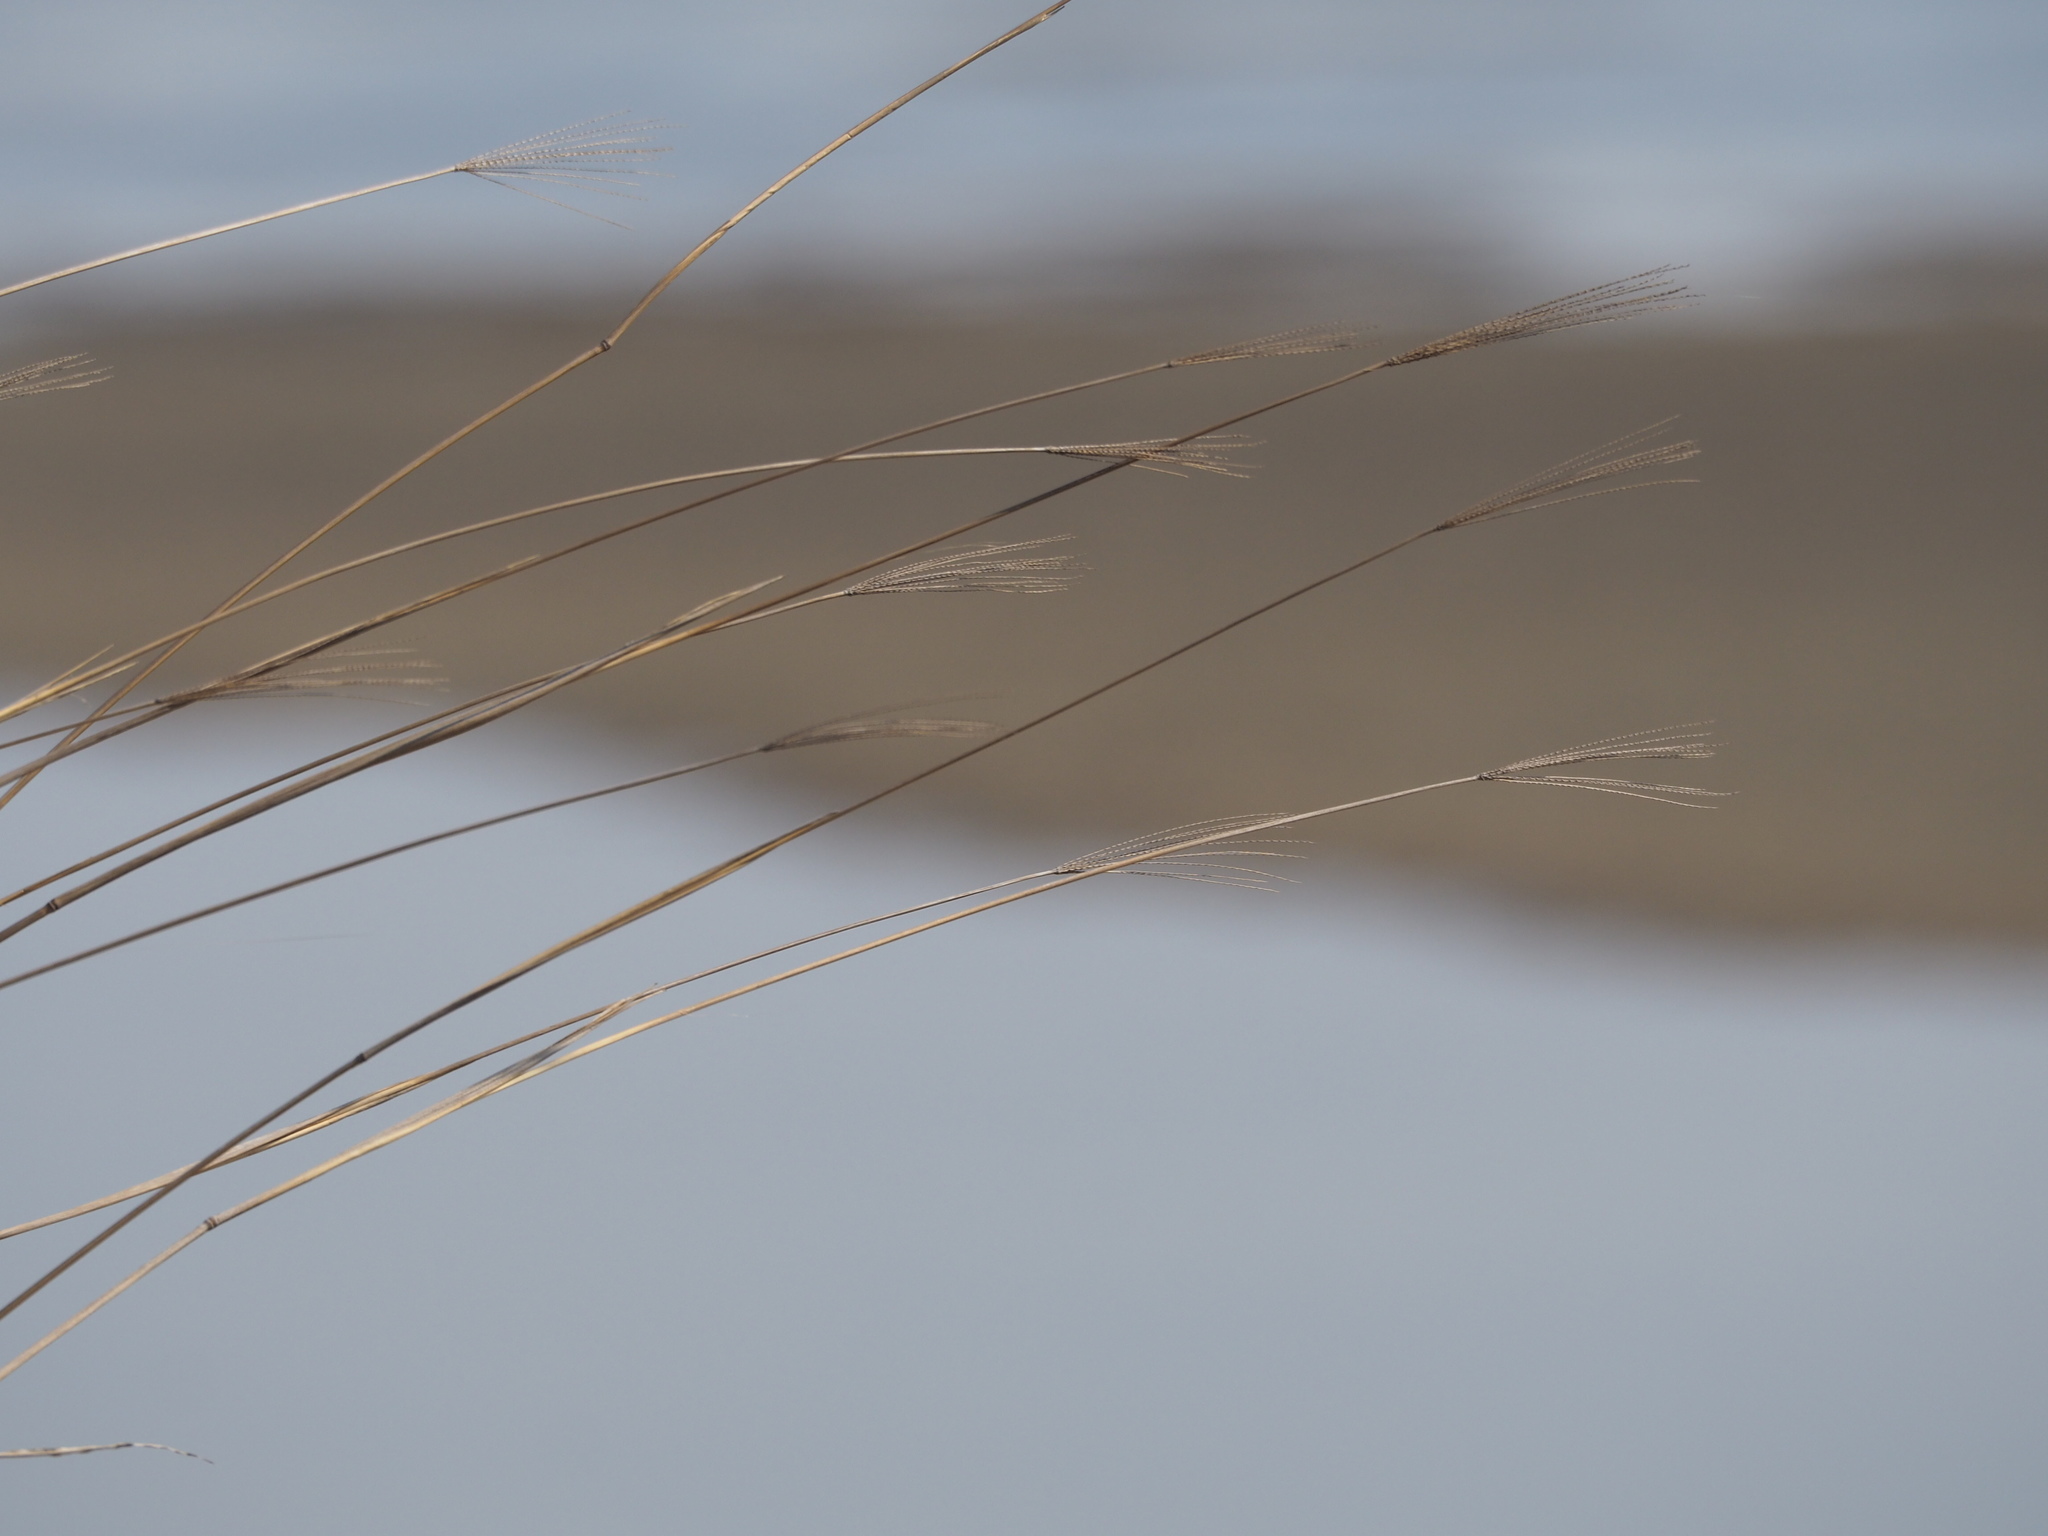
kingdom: Plantae
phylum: Tracheophyta
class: Liliopsida
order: Poales
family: Poaceae
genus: Chloris
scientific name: Chloris formosana
